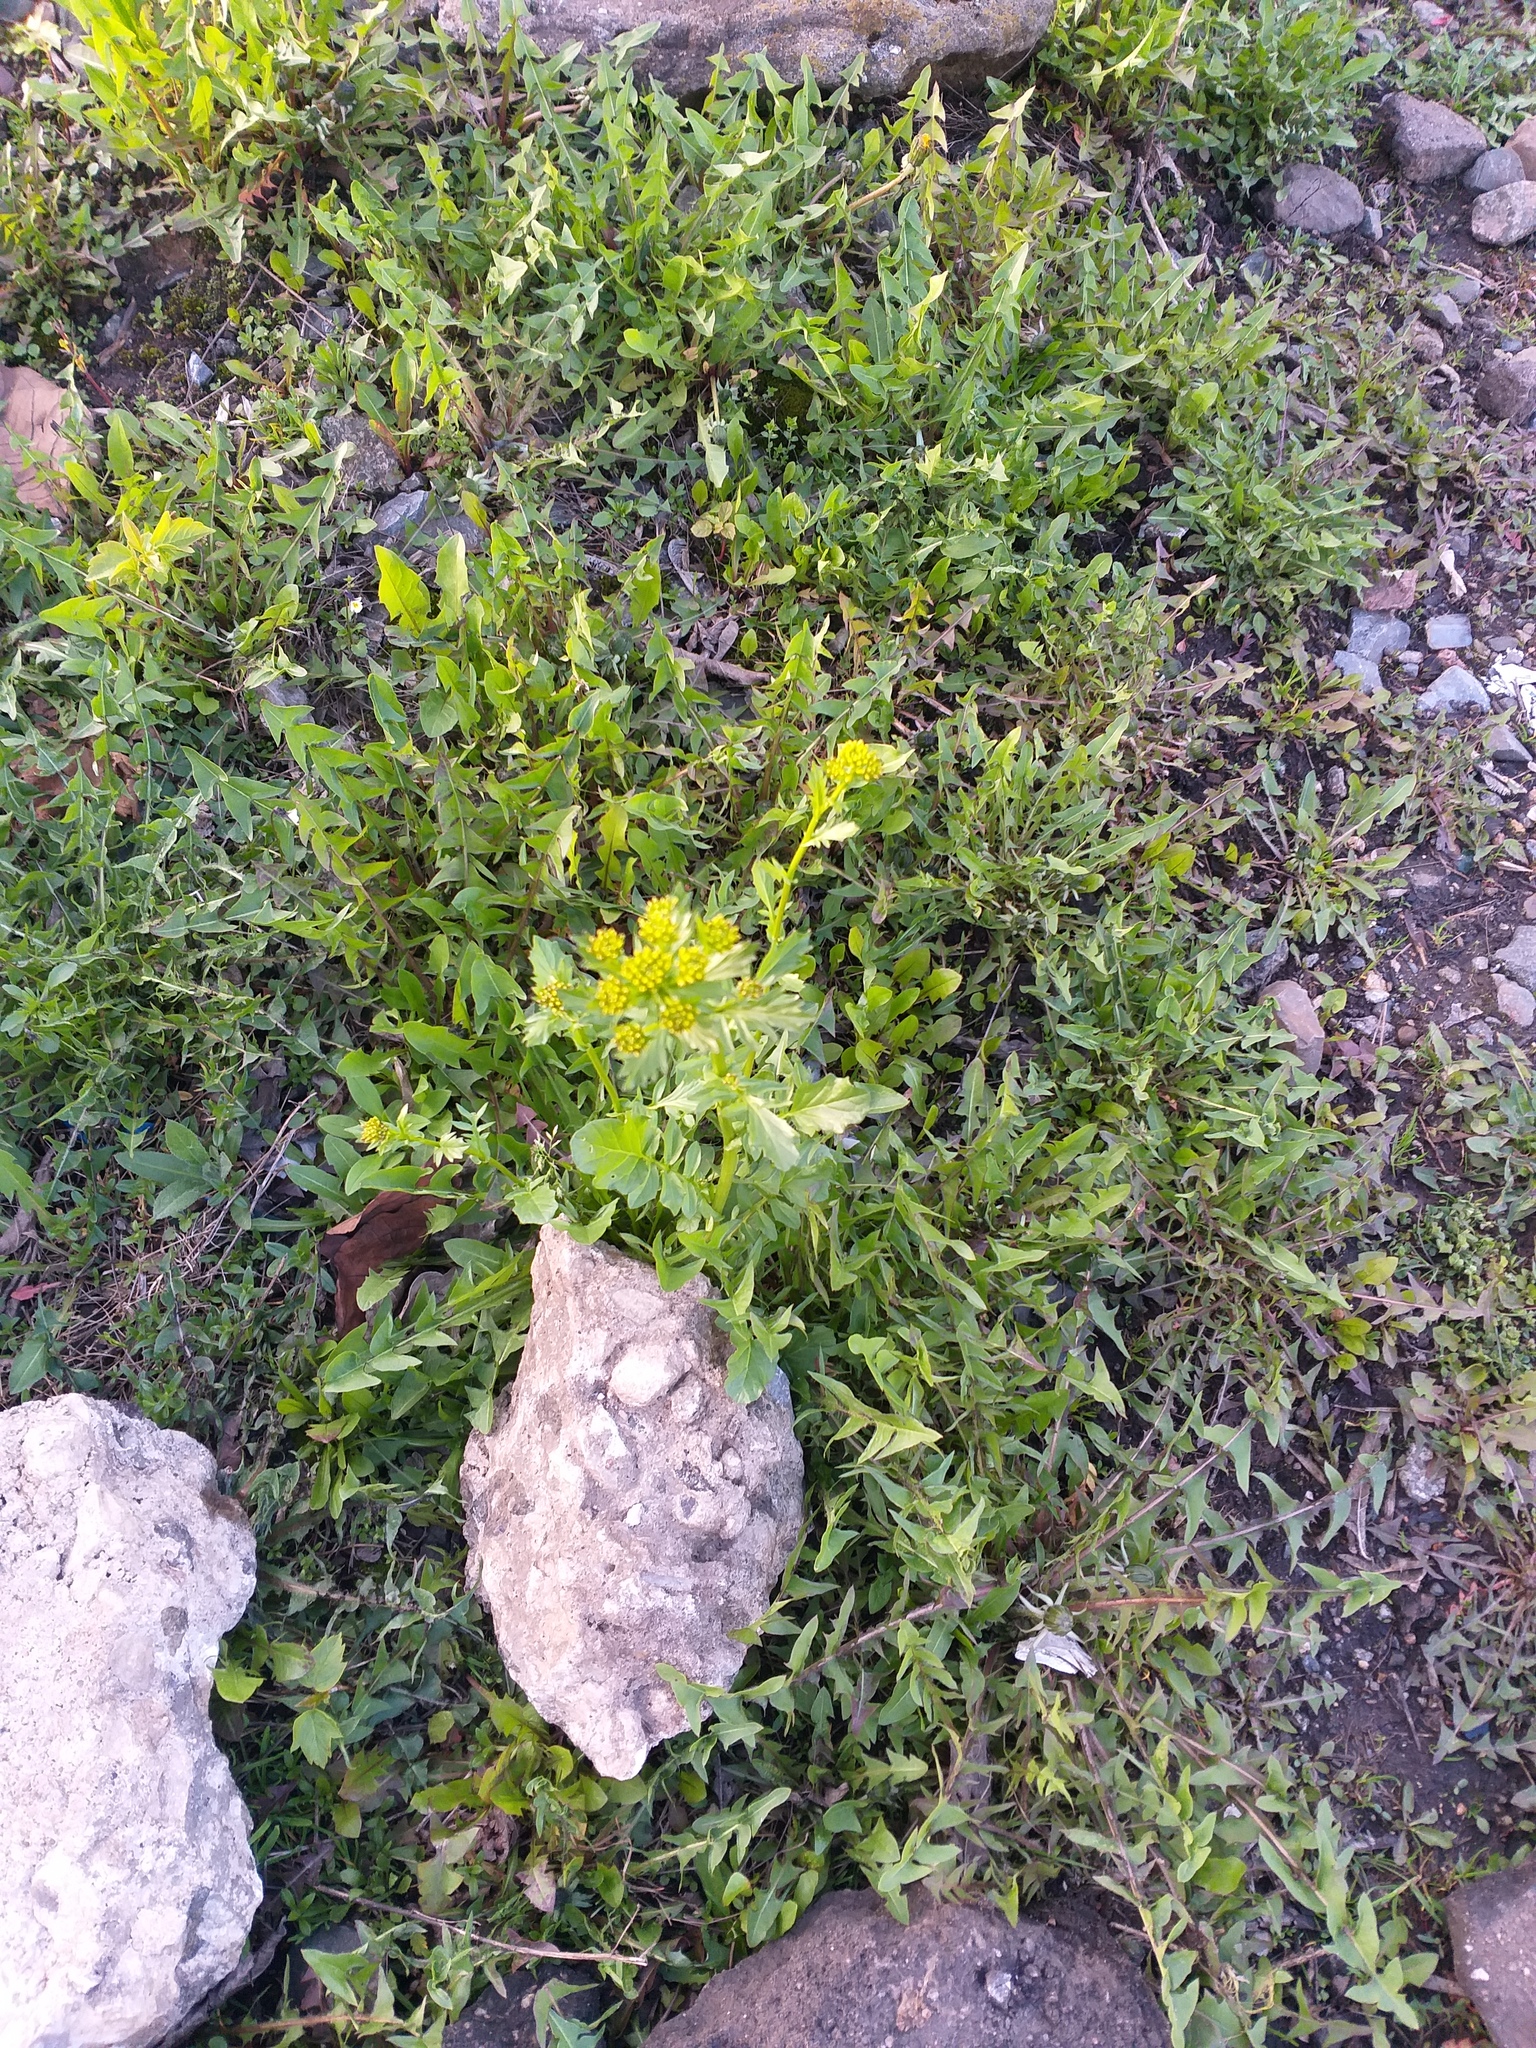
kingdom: Plantae
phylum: Tracheophyta
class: Magnoliopsida
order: Brassicales
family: Brassicaceae
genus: Barbarea
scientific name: Barbarea vulgaris
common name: Cressy-greens
